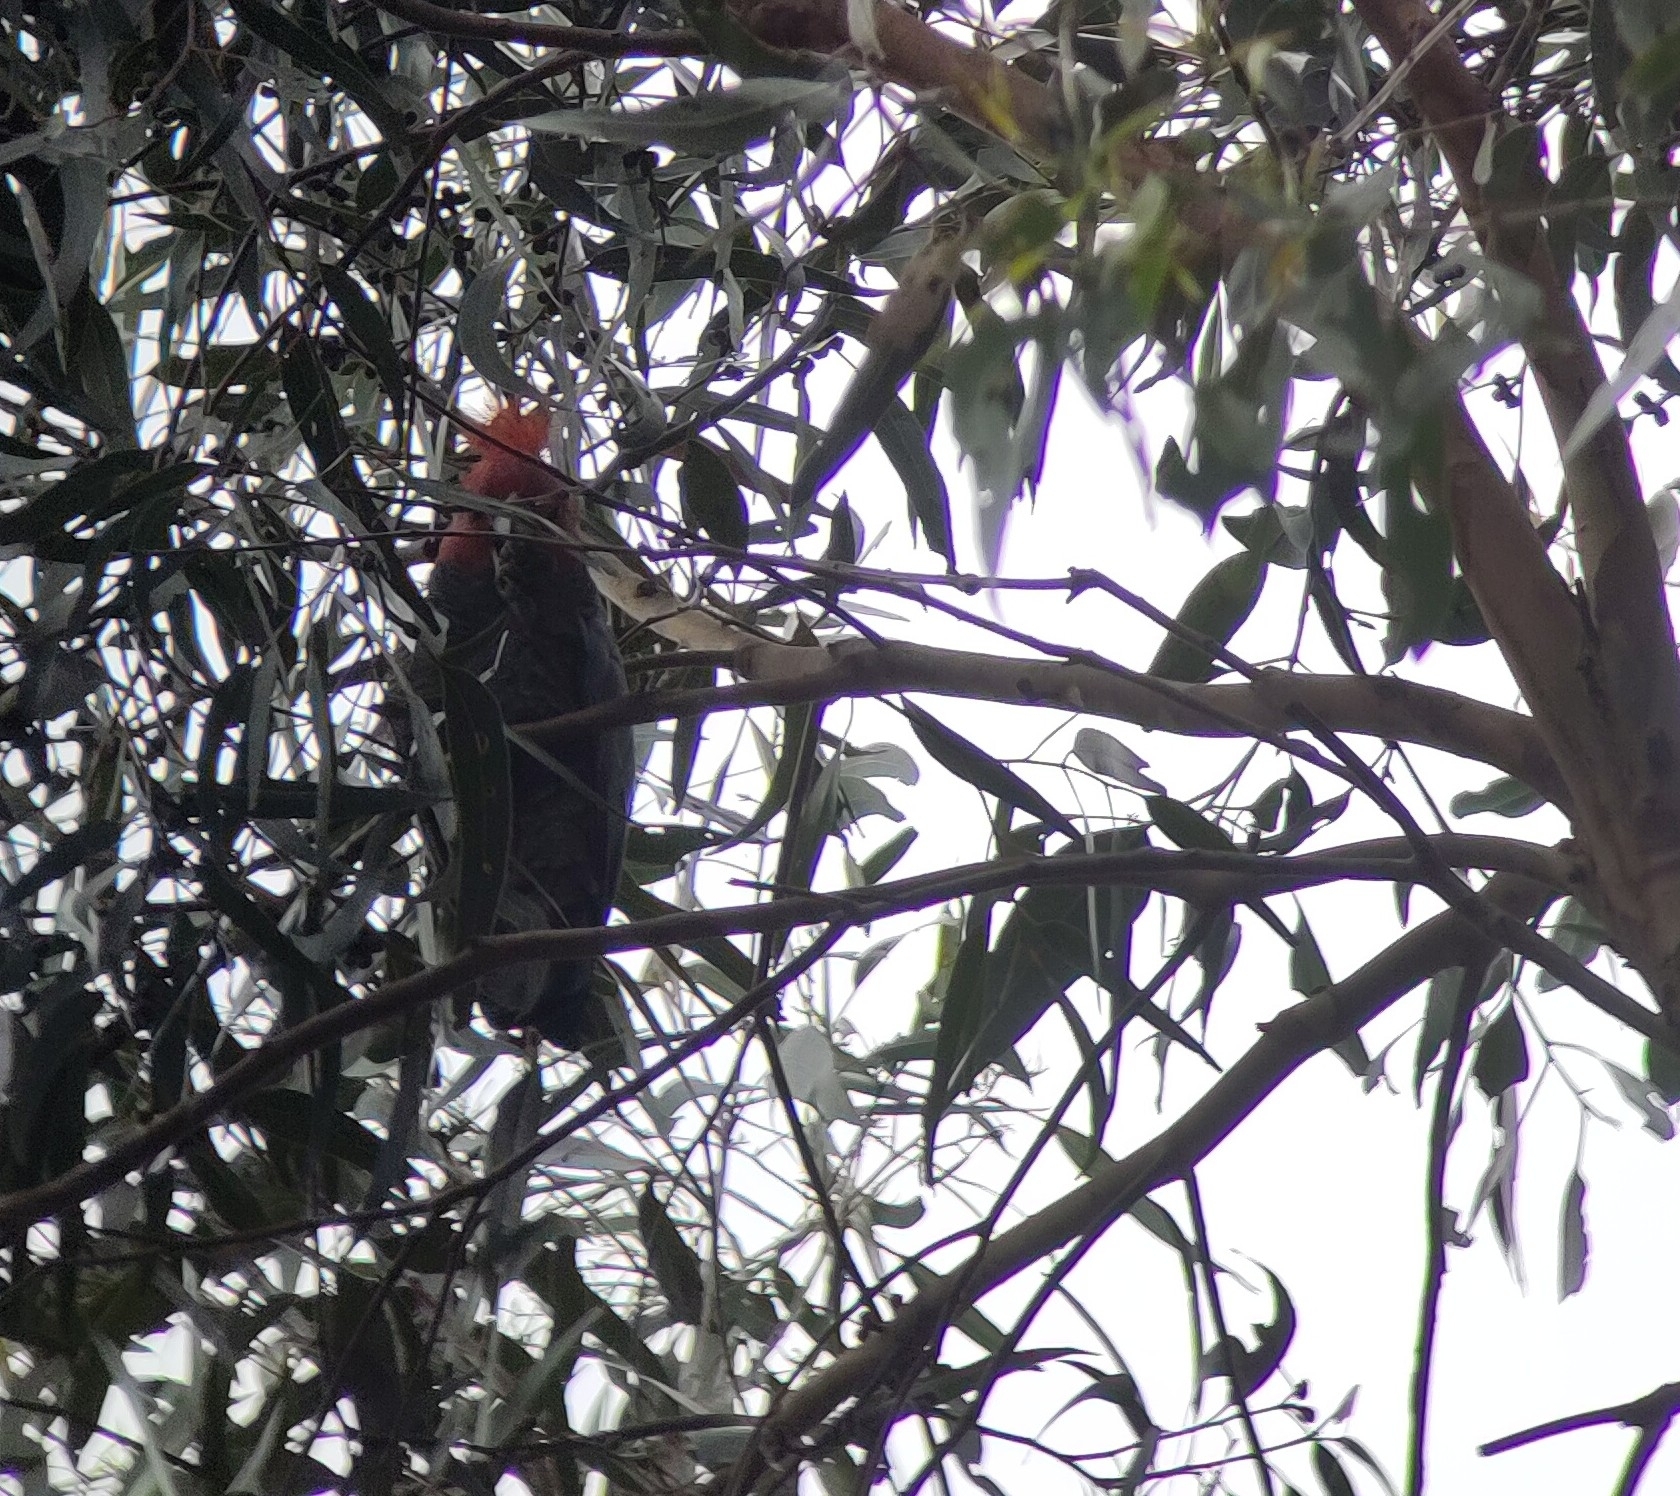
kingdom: Animalia
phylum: Chordata
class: Aves
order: Psittaciformes
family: Psittacidae
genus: Callocephalon
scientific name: Callocephalon fimbriatum
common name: Gang-gang cockatoo
